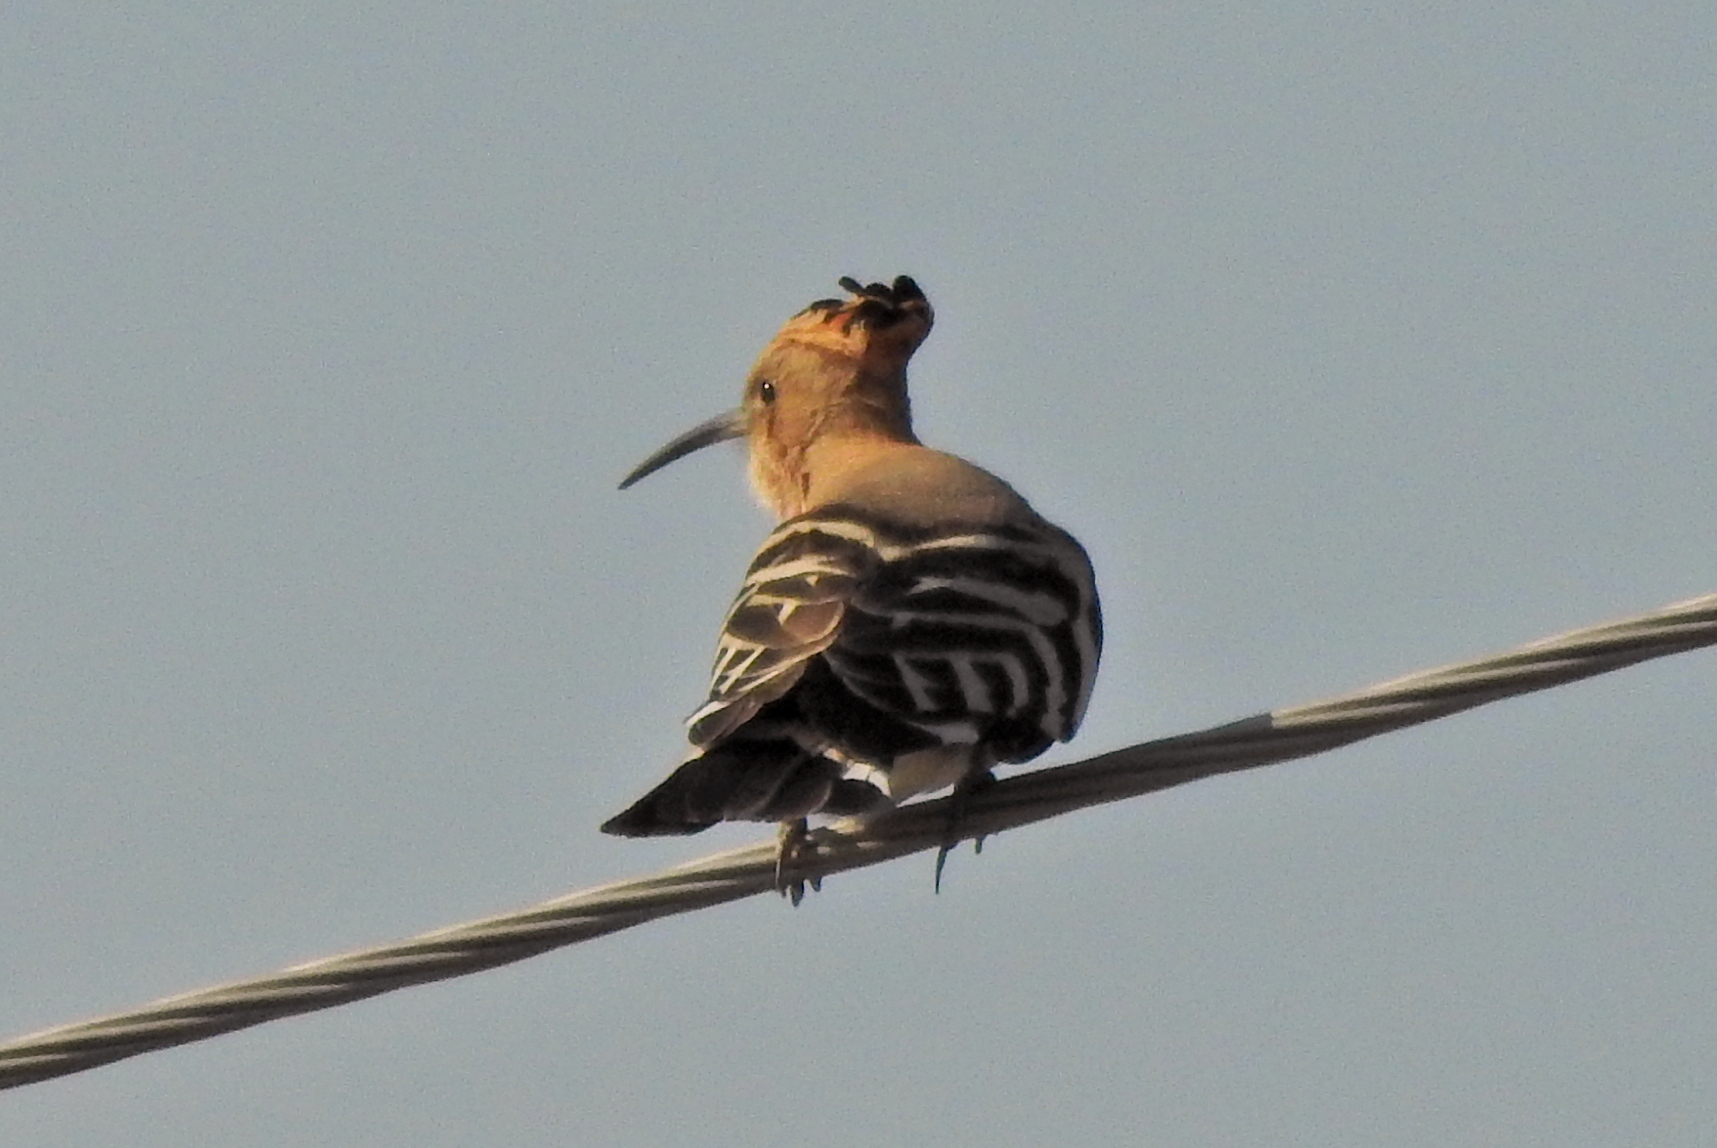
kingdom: Animalia
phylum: Chordata
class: Aves
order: Bucerotiformes
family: Upupidae
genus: Upupa
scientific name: Upupa epops
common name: Eurasian hoopoe
